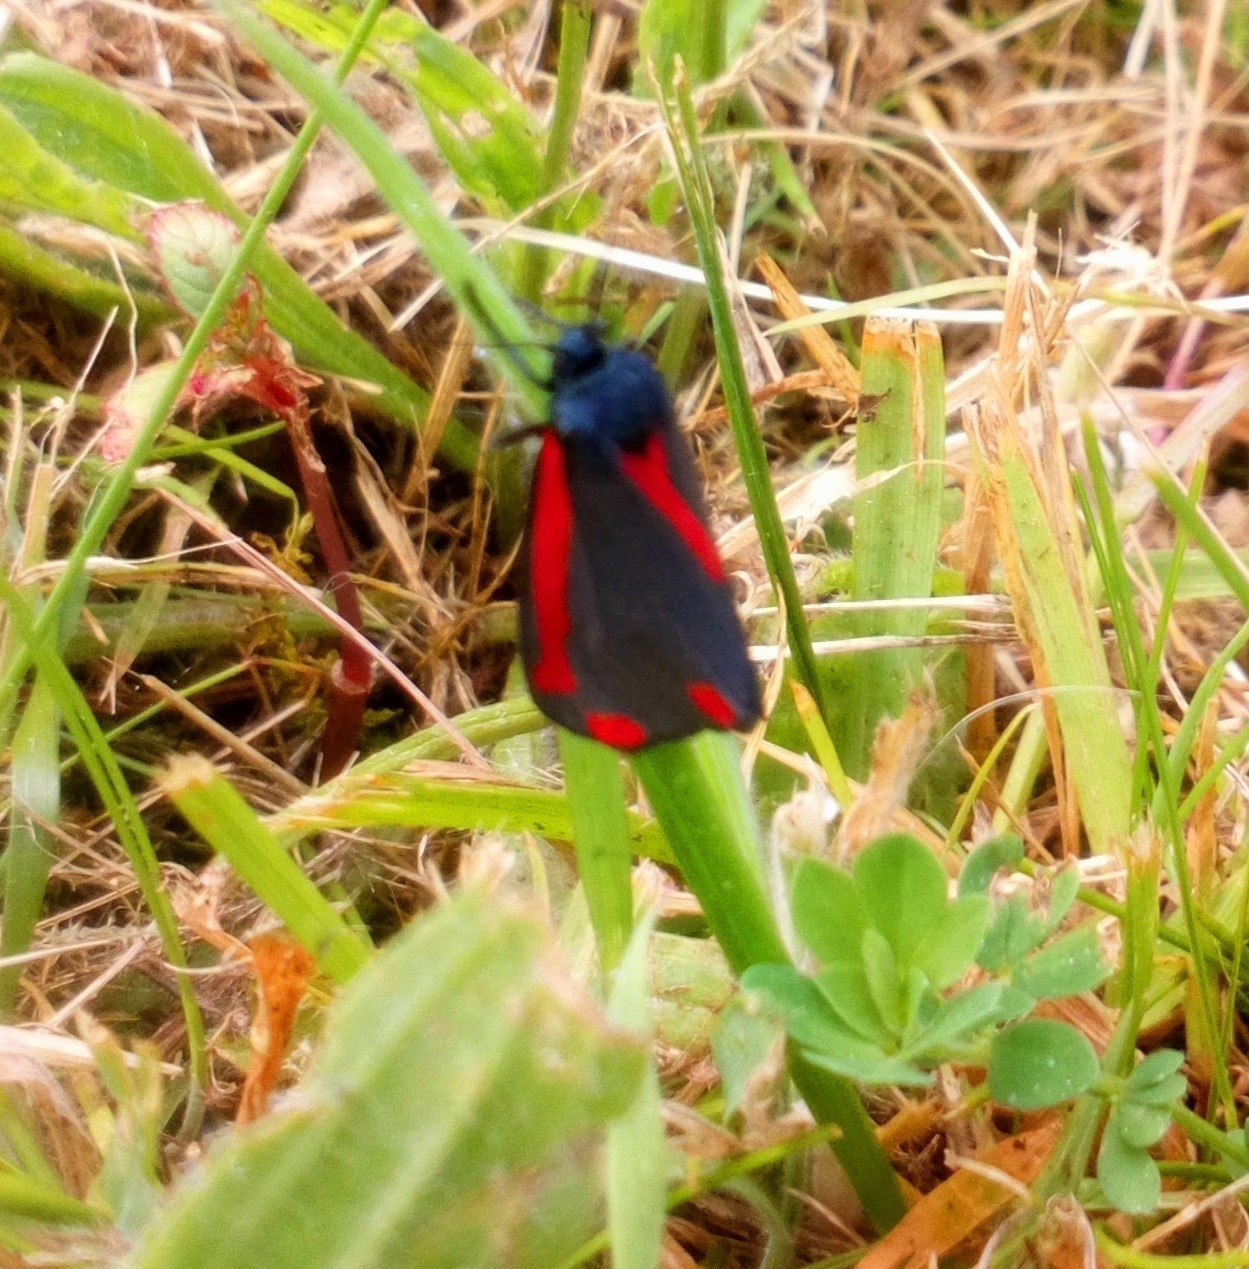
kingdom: Animalia
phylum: Arthropoda
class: Insecta
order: Lepidoptera
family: Erebidae
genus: Tyria
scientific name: Tyria jacobaeae
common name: Cinnabar
